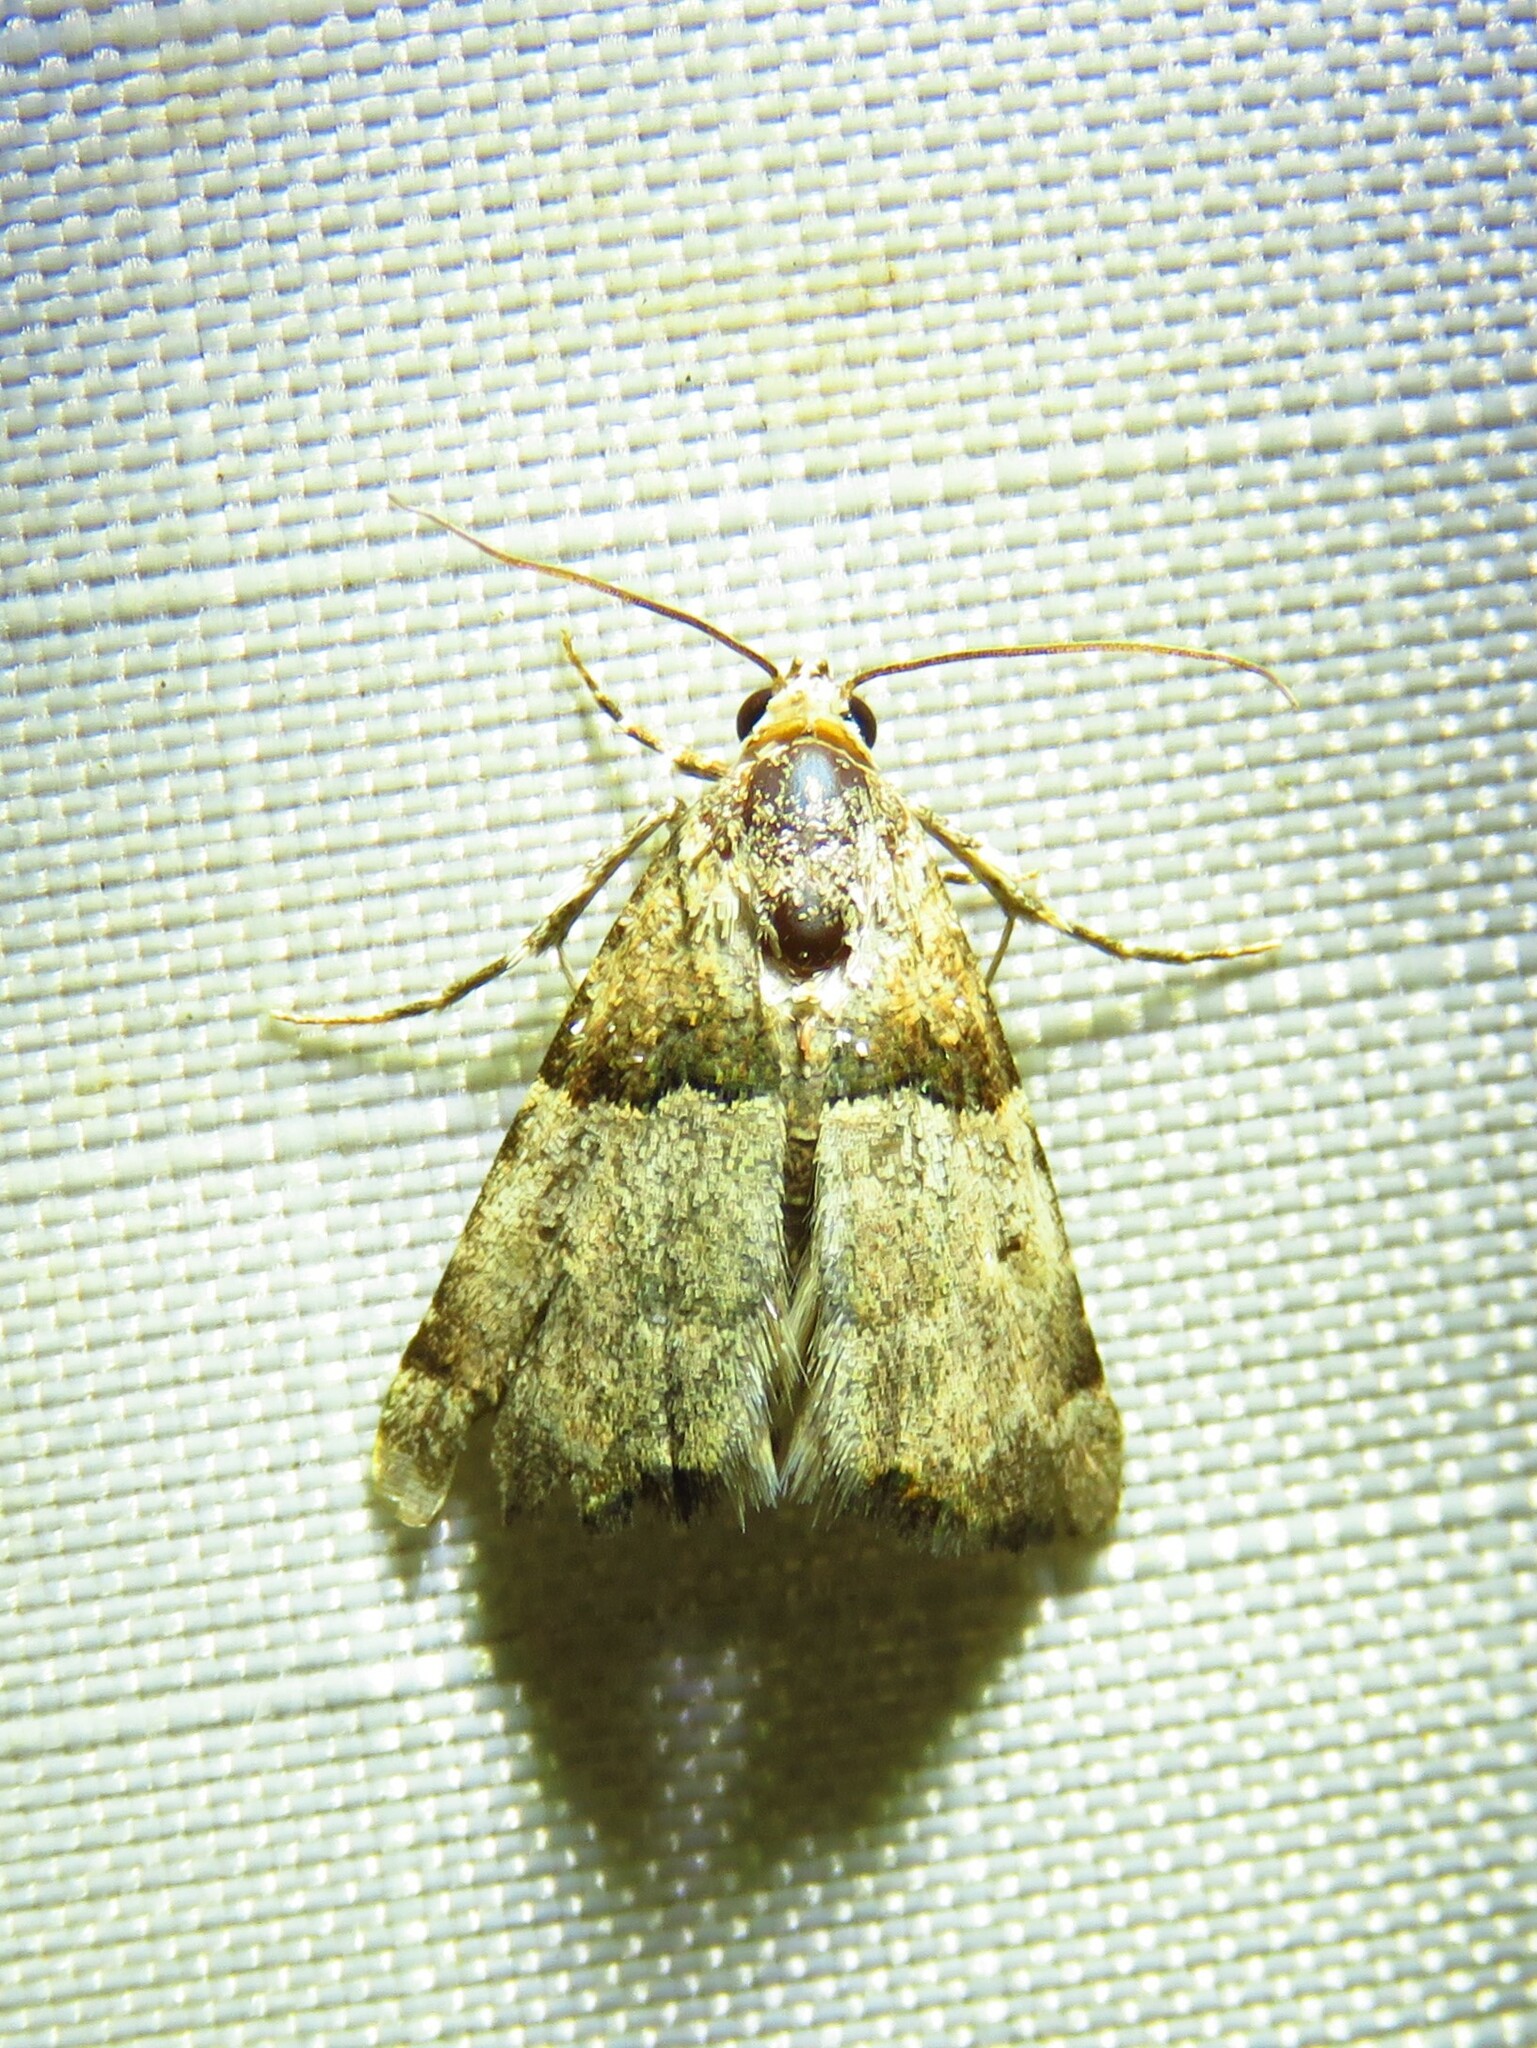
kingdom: Animalia
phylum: Arthropoda
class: Insecta
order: Lepidoptera
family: Noctuidae
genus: Cobubatha
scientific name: Cobubatha dividua
